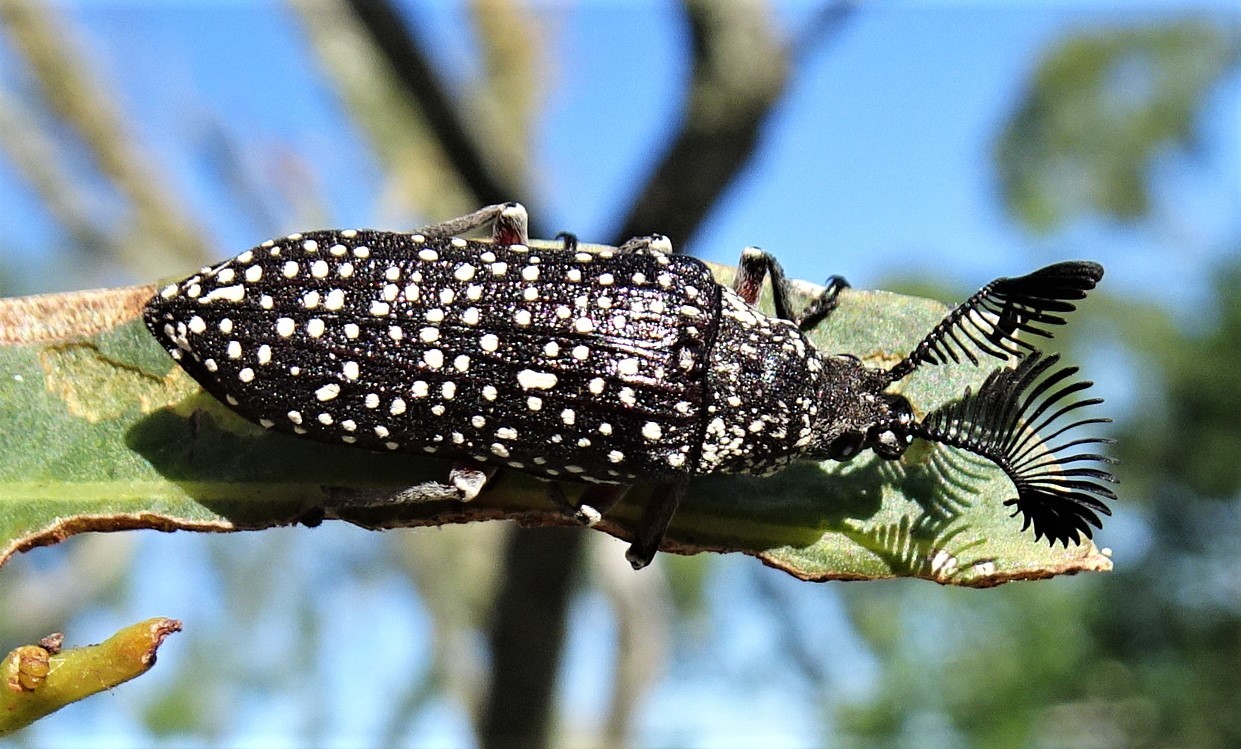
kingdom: Animalia
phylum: Arthropoda
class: Insecta
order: Coleoptera
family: Rhipiceridae
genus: Rhipicera
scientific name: Rhipicera
